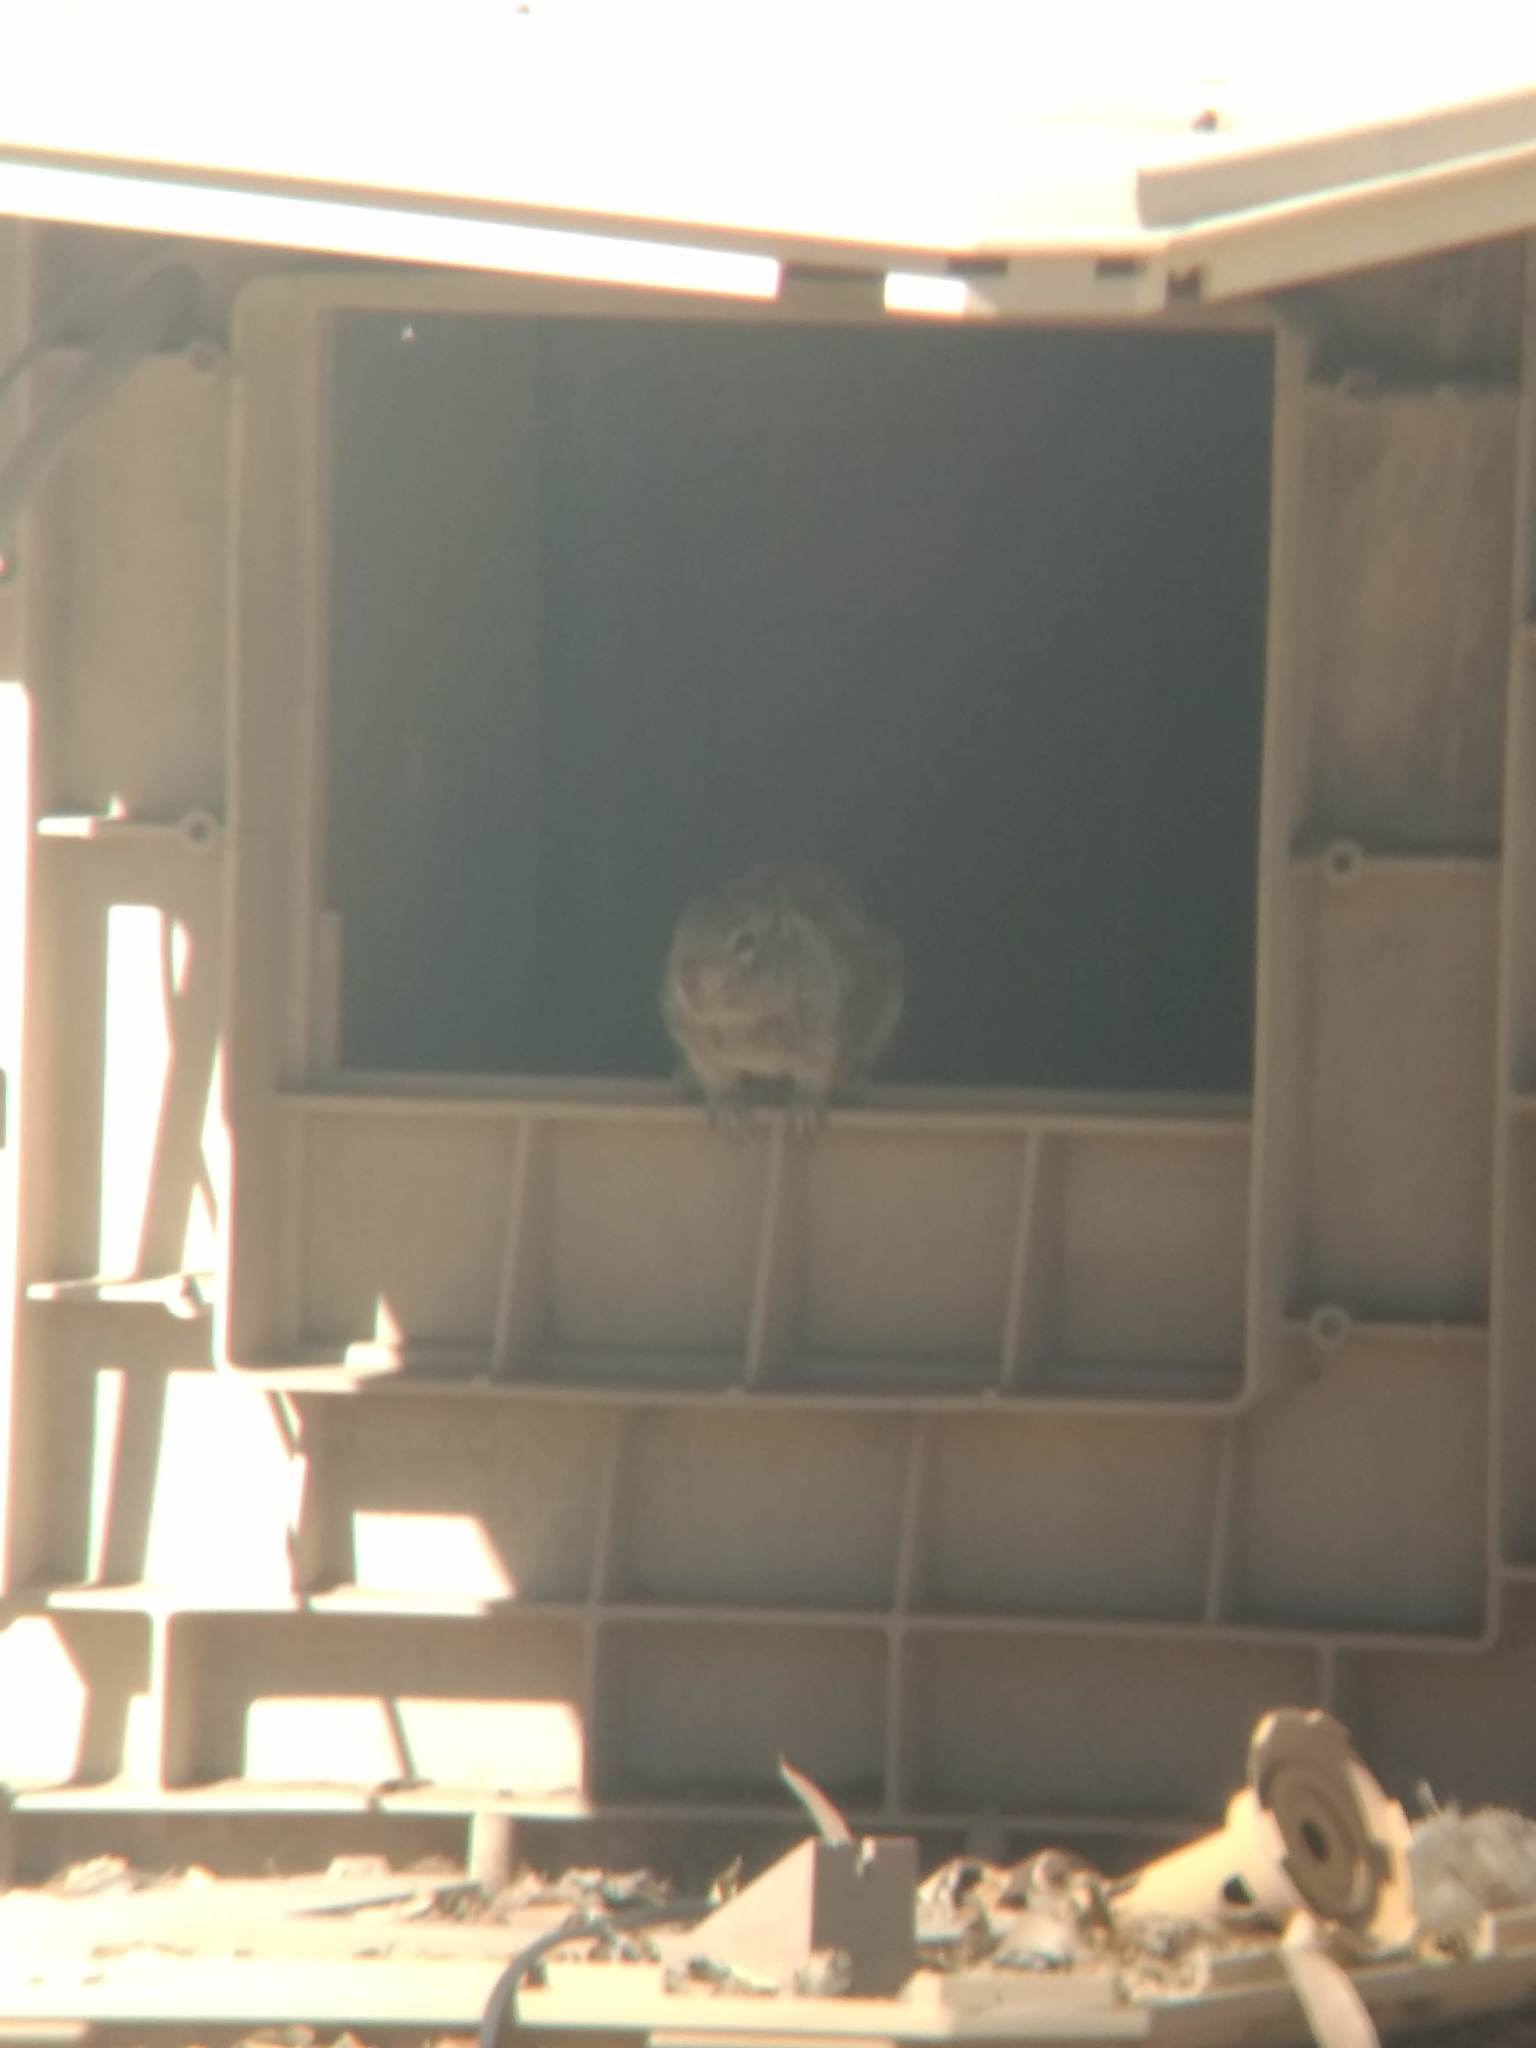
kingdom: Animalia
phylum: Chordata
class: Mammalia
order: Rodentia
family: Sciuridae
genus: Otospermophilus
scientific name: Otospermophilus beecheyi
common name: California ground squirrel
